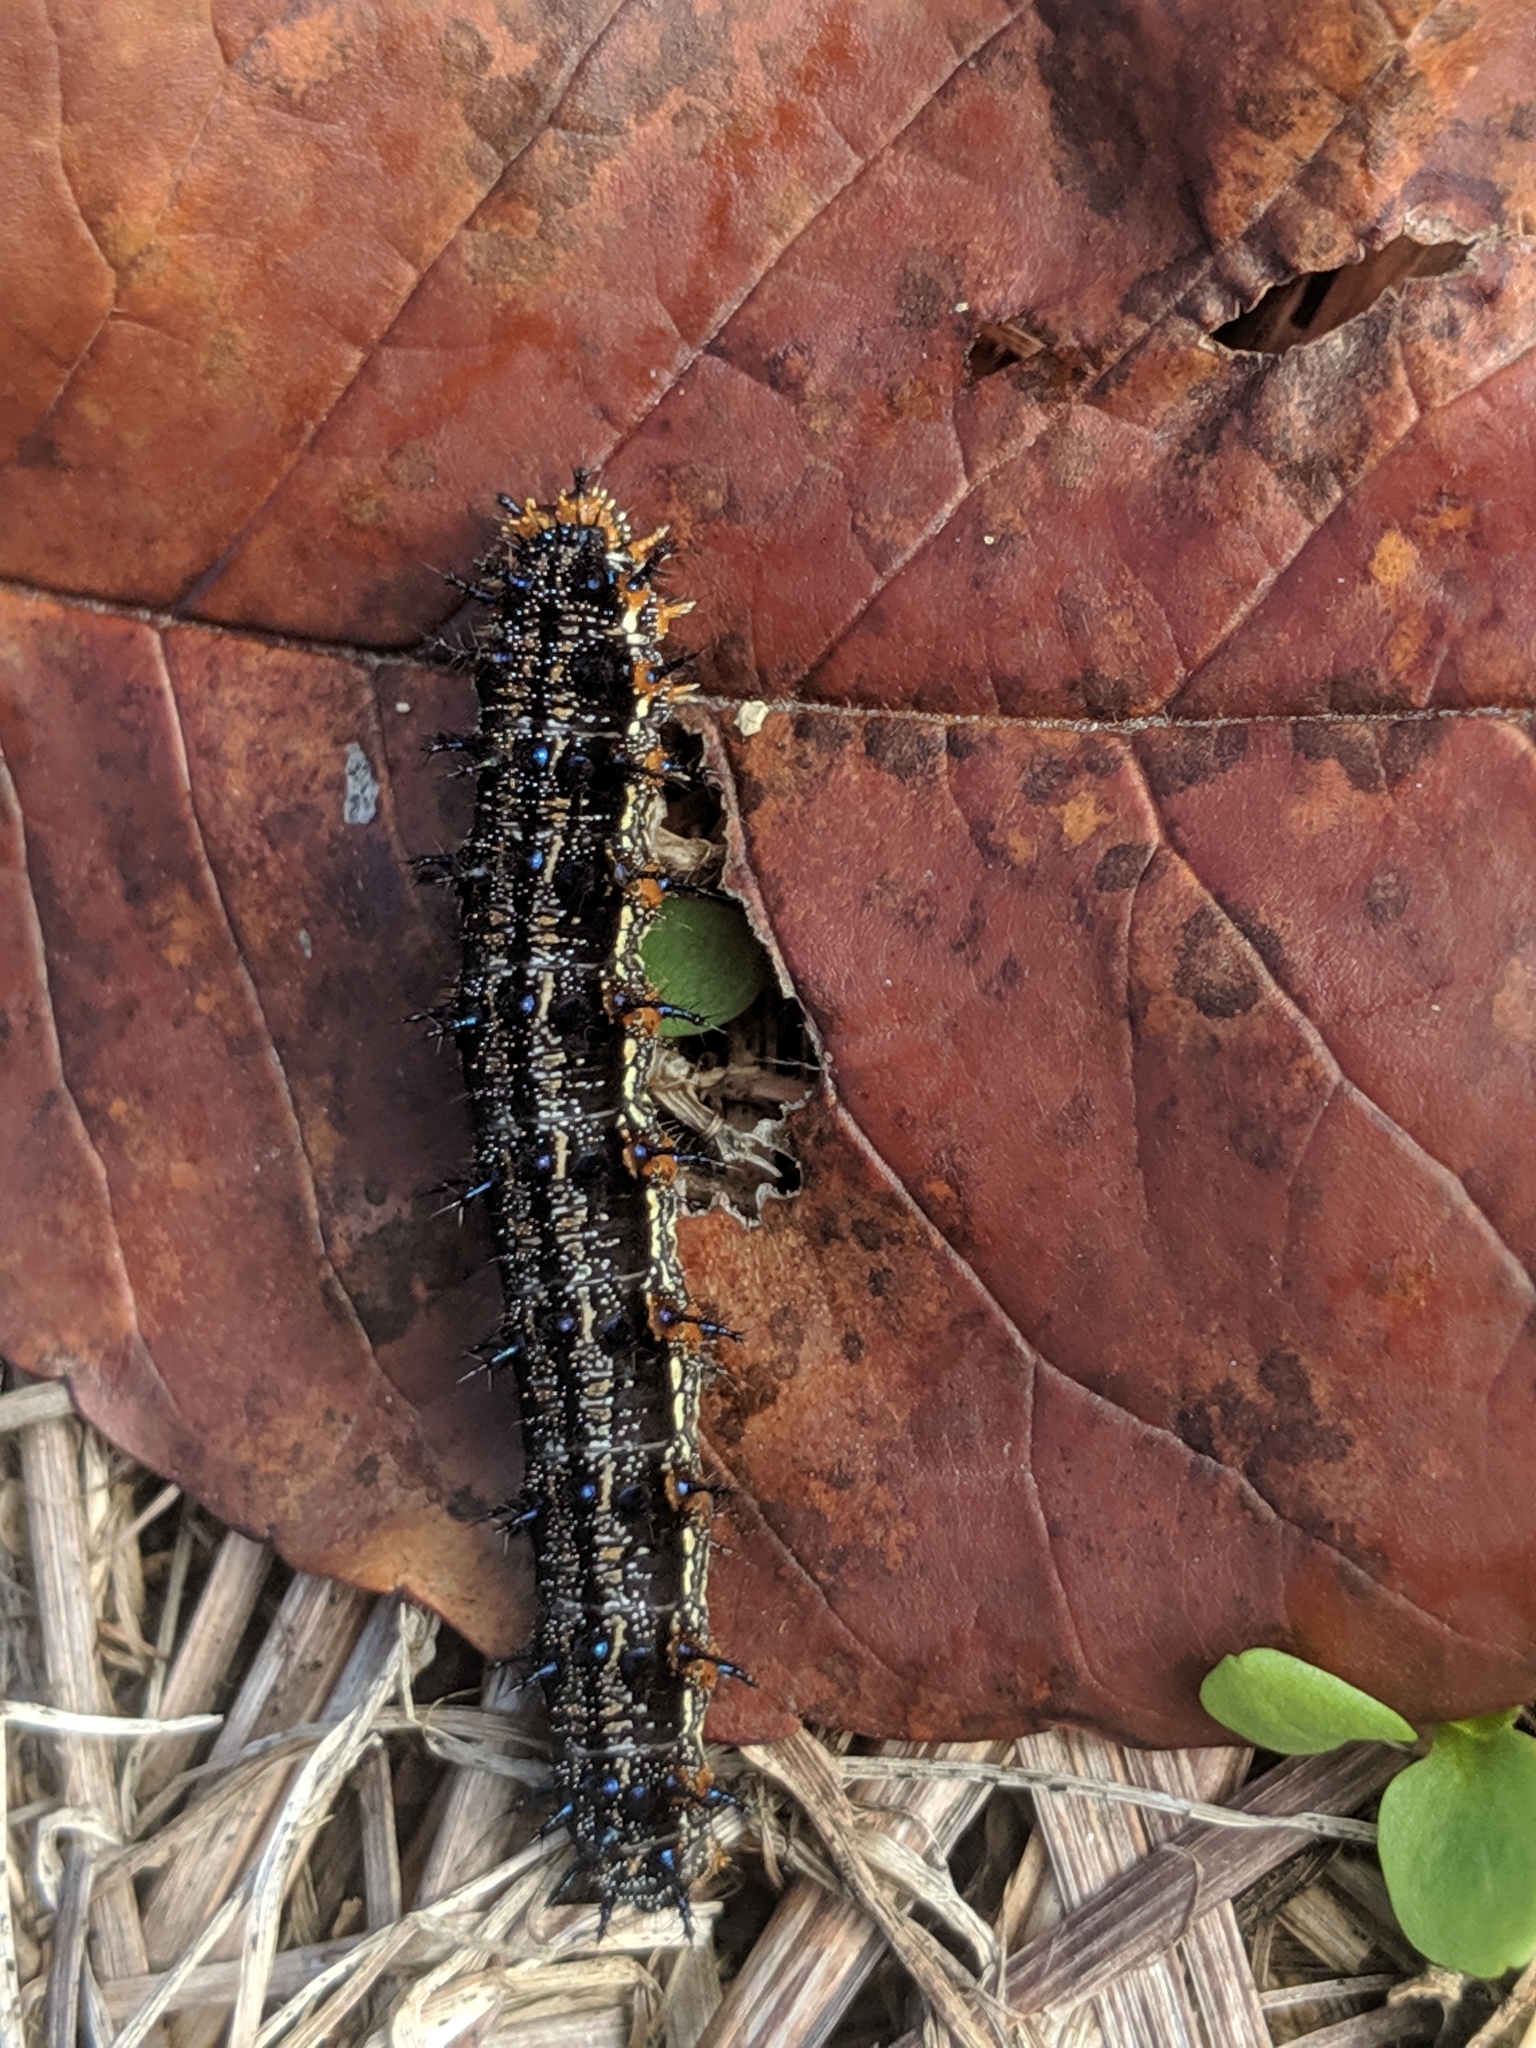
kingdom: Animalia
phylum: Arthropoda
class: Insecta
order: Lepidoptera
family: Nymphalidae
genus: Junonia
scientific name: Junonia coenia
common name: Common buckeye
